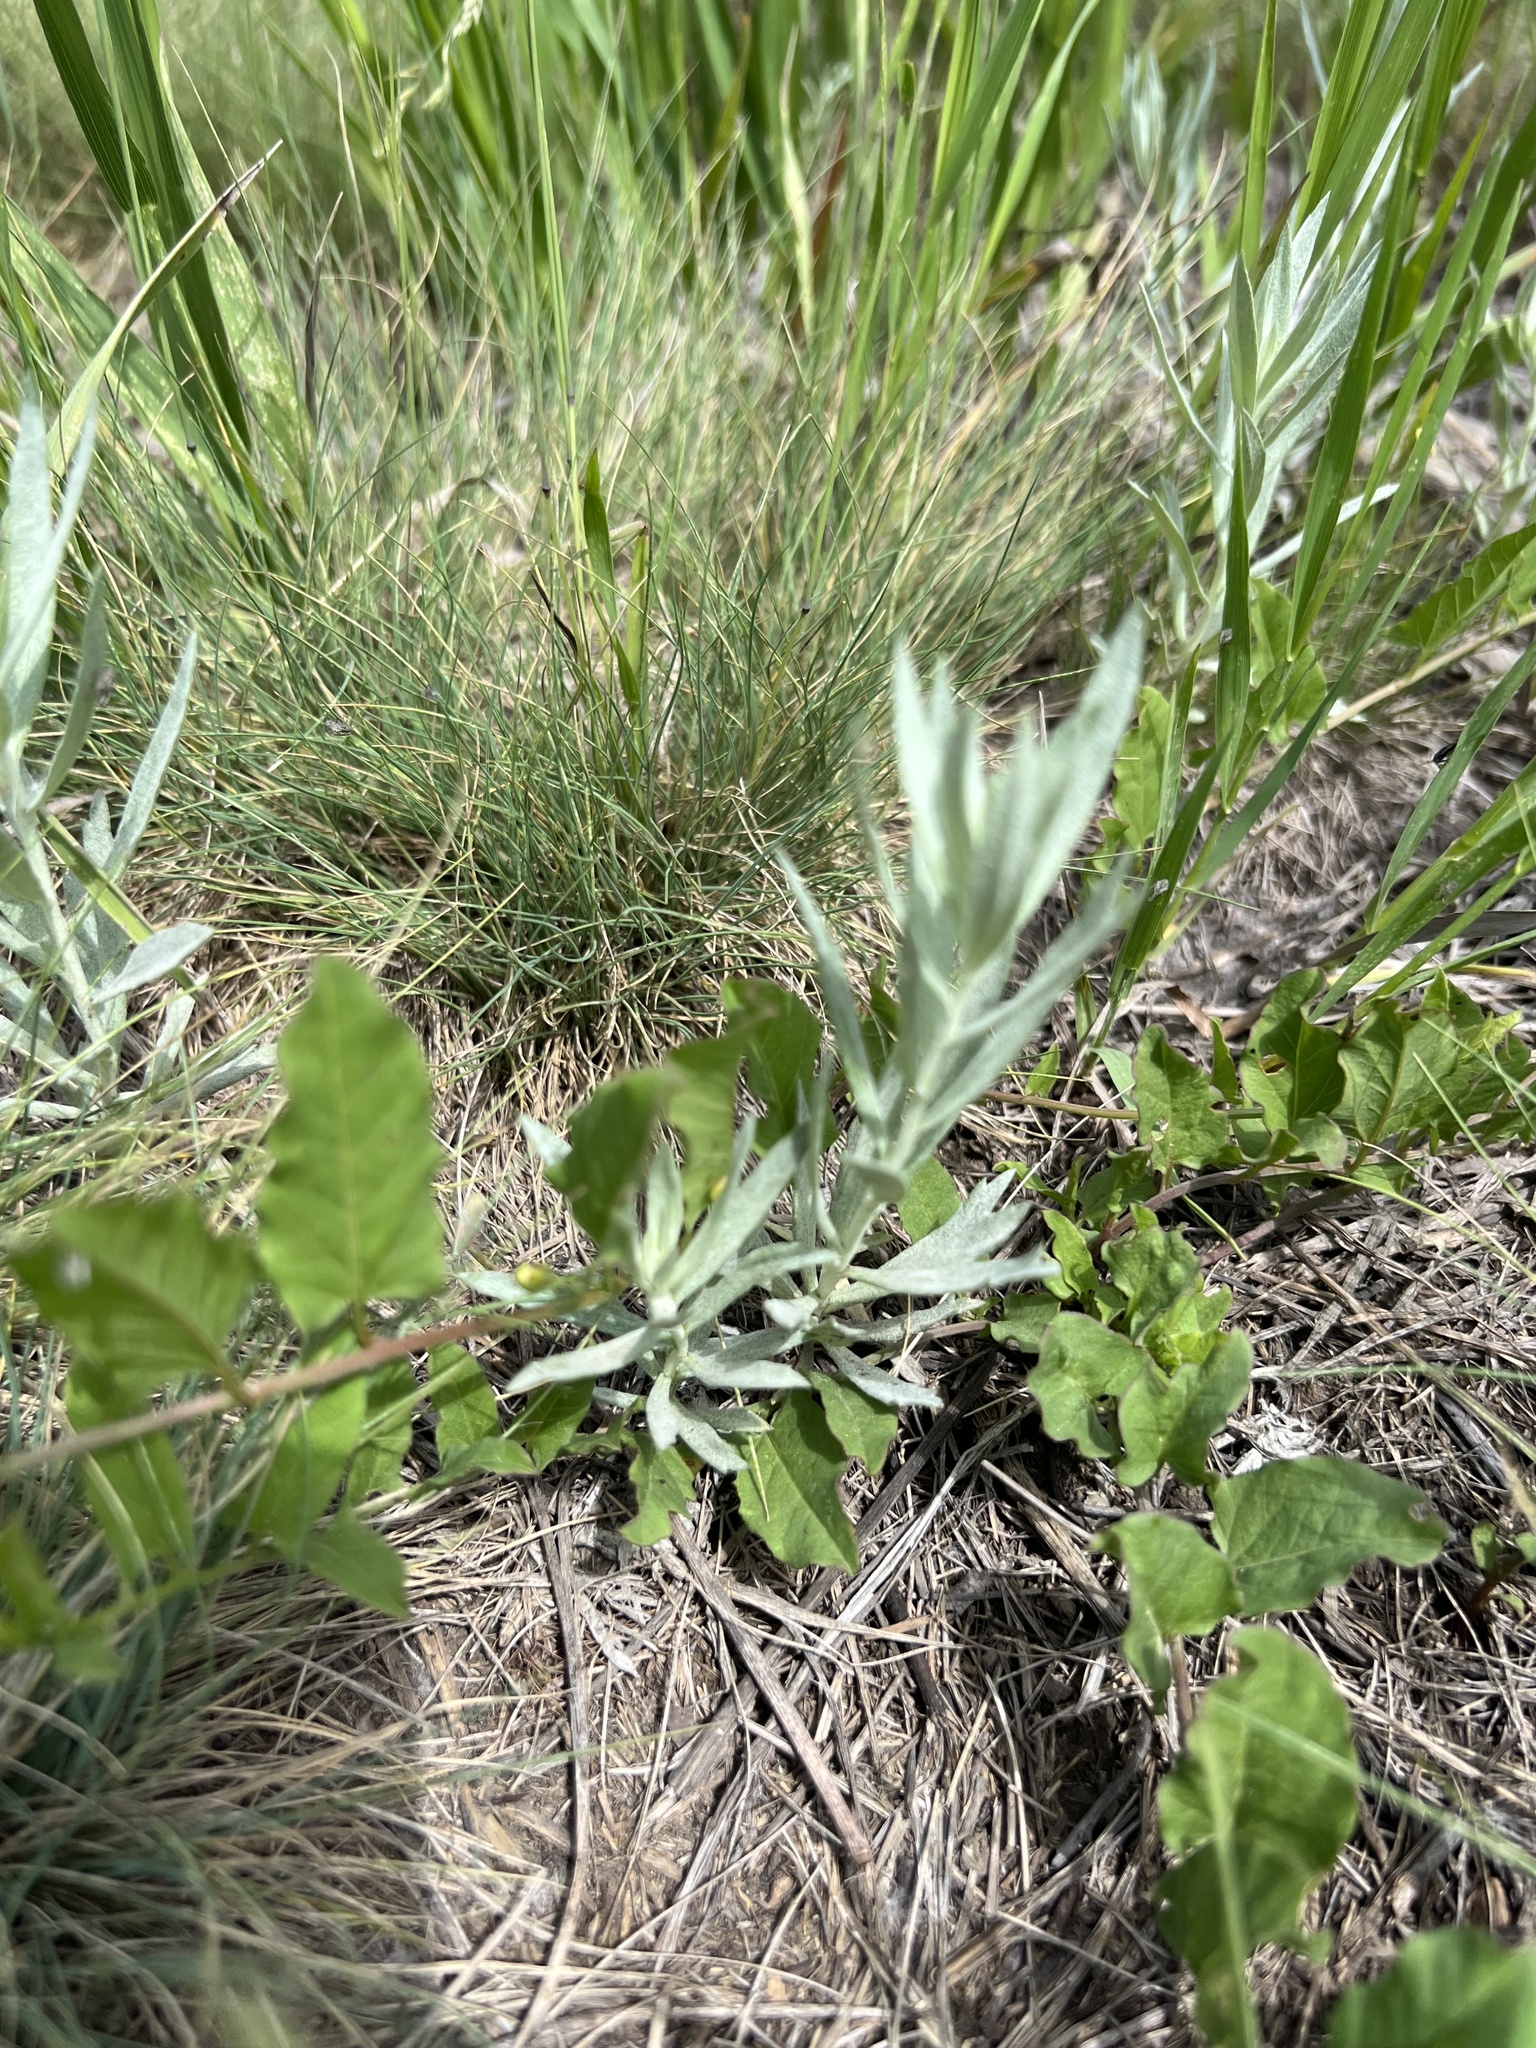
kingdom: Plantae
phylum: Tracheophyta
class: Magnoliopsida
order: Asterales
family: Asteraceae
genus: Artemisia
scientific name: Artemisia ludoviciana
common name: Western mugwort
